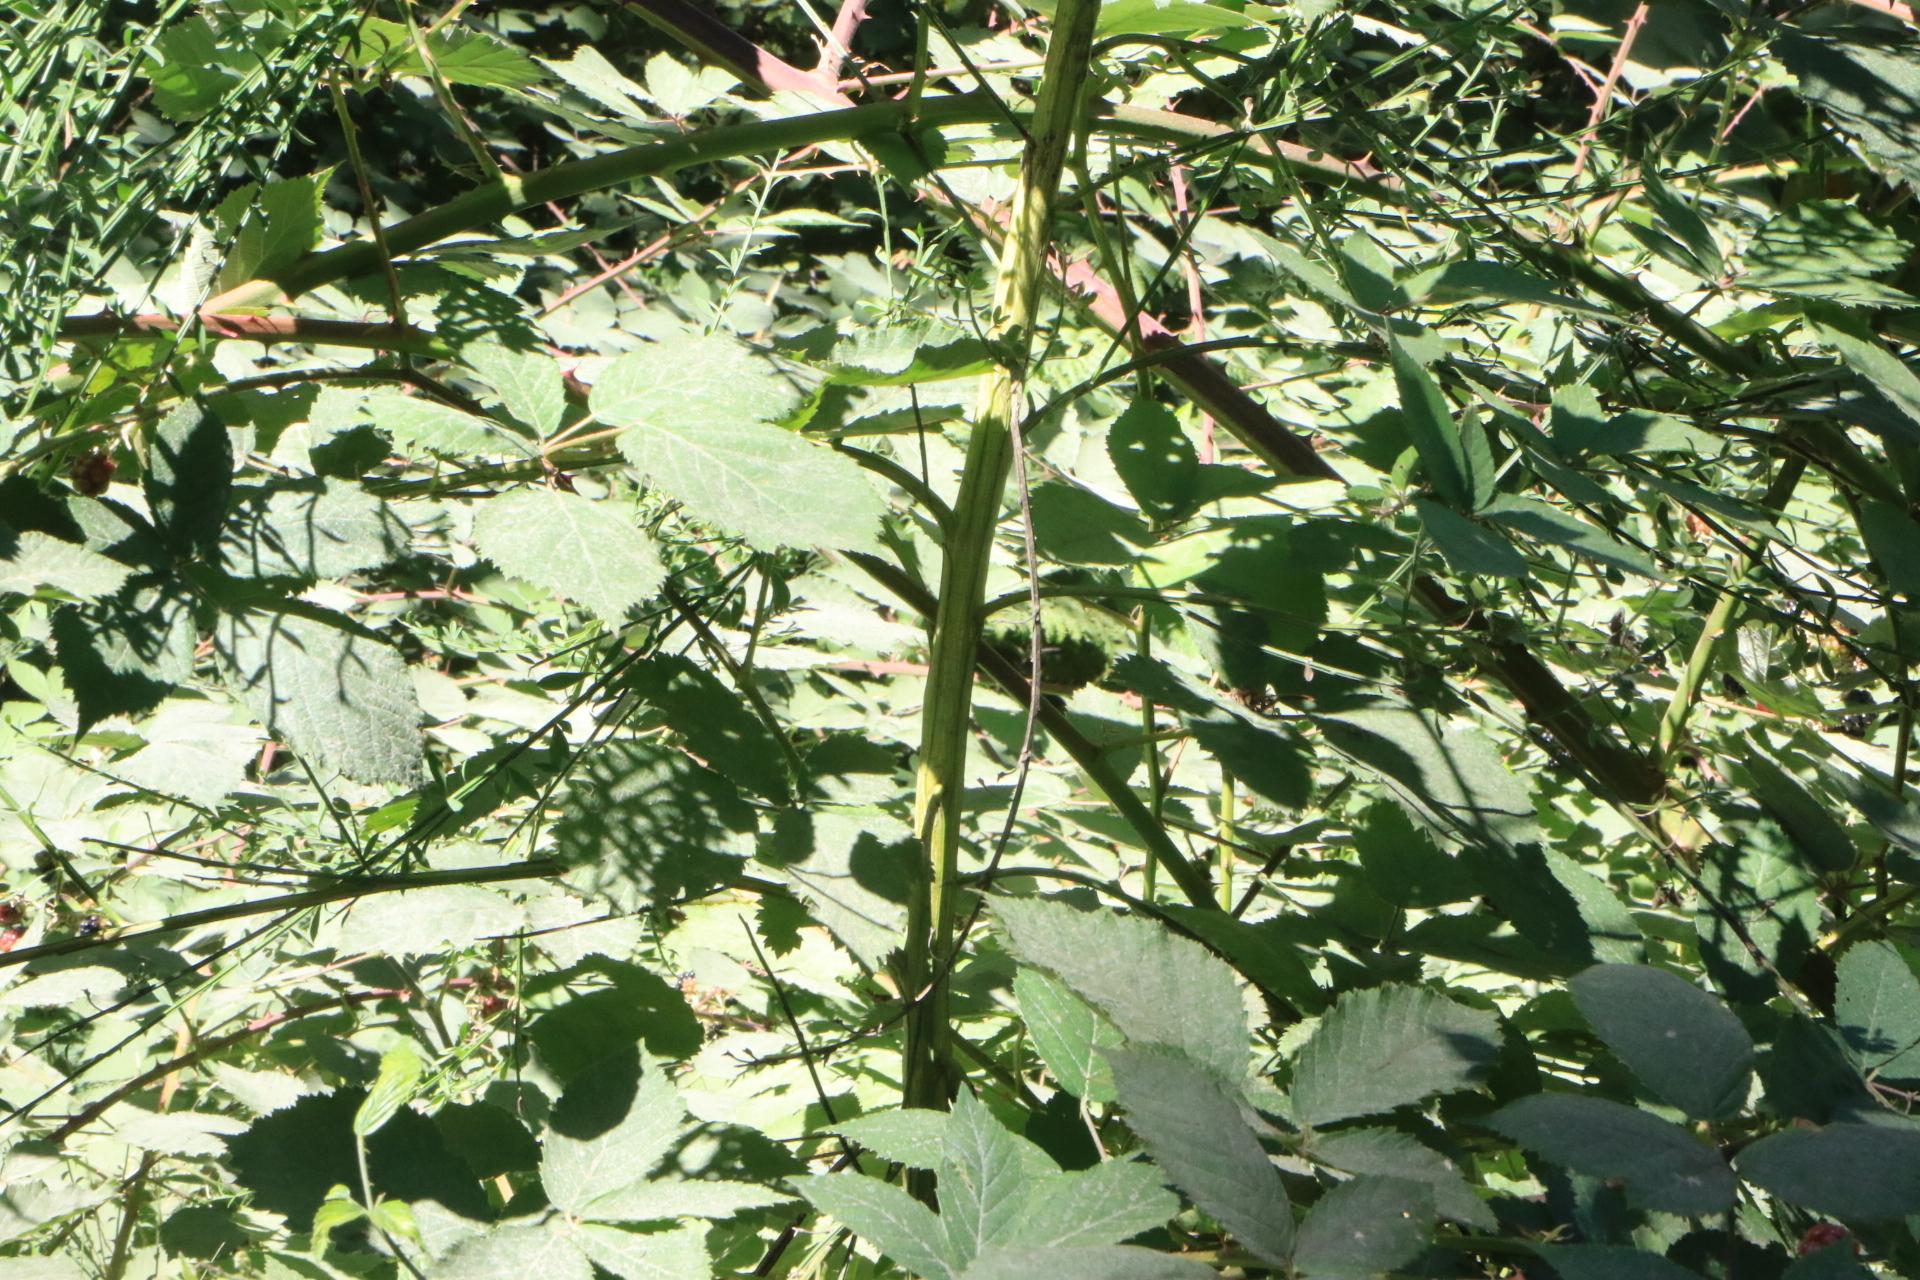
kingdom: Plantae
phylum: Tracheophyta
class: Magnoliopsida
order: Fabales
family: Fabaceae
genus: Cytisus
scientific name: Cytisus scoparius
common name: Scotch broom
